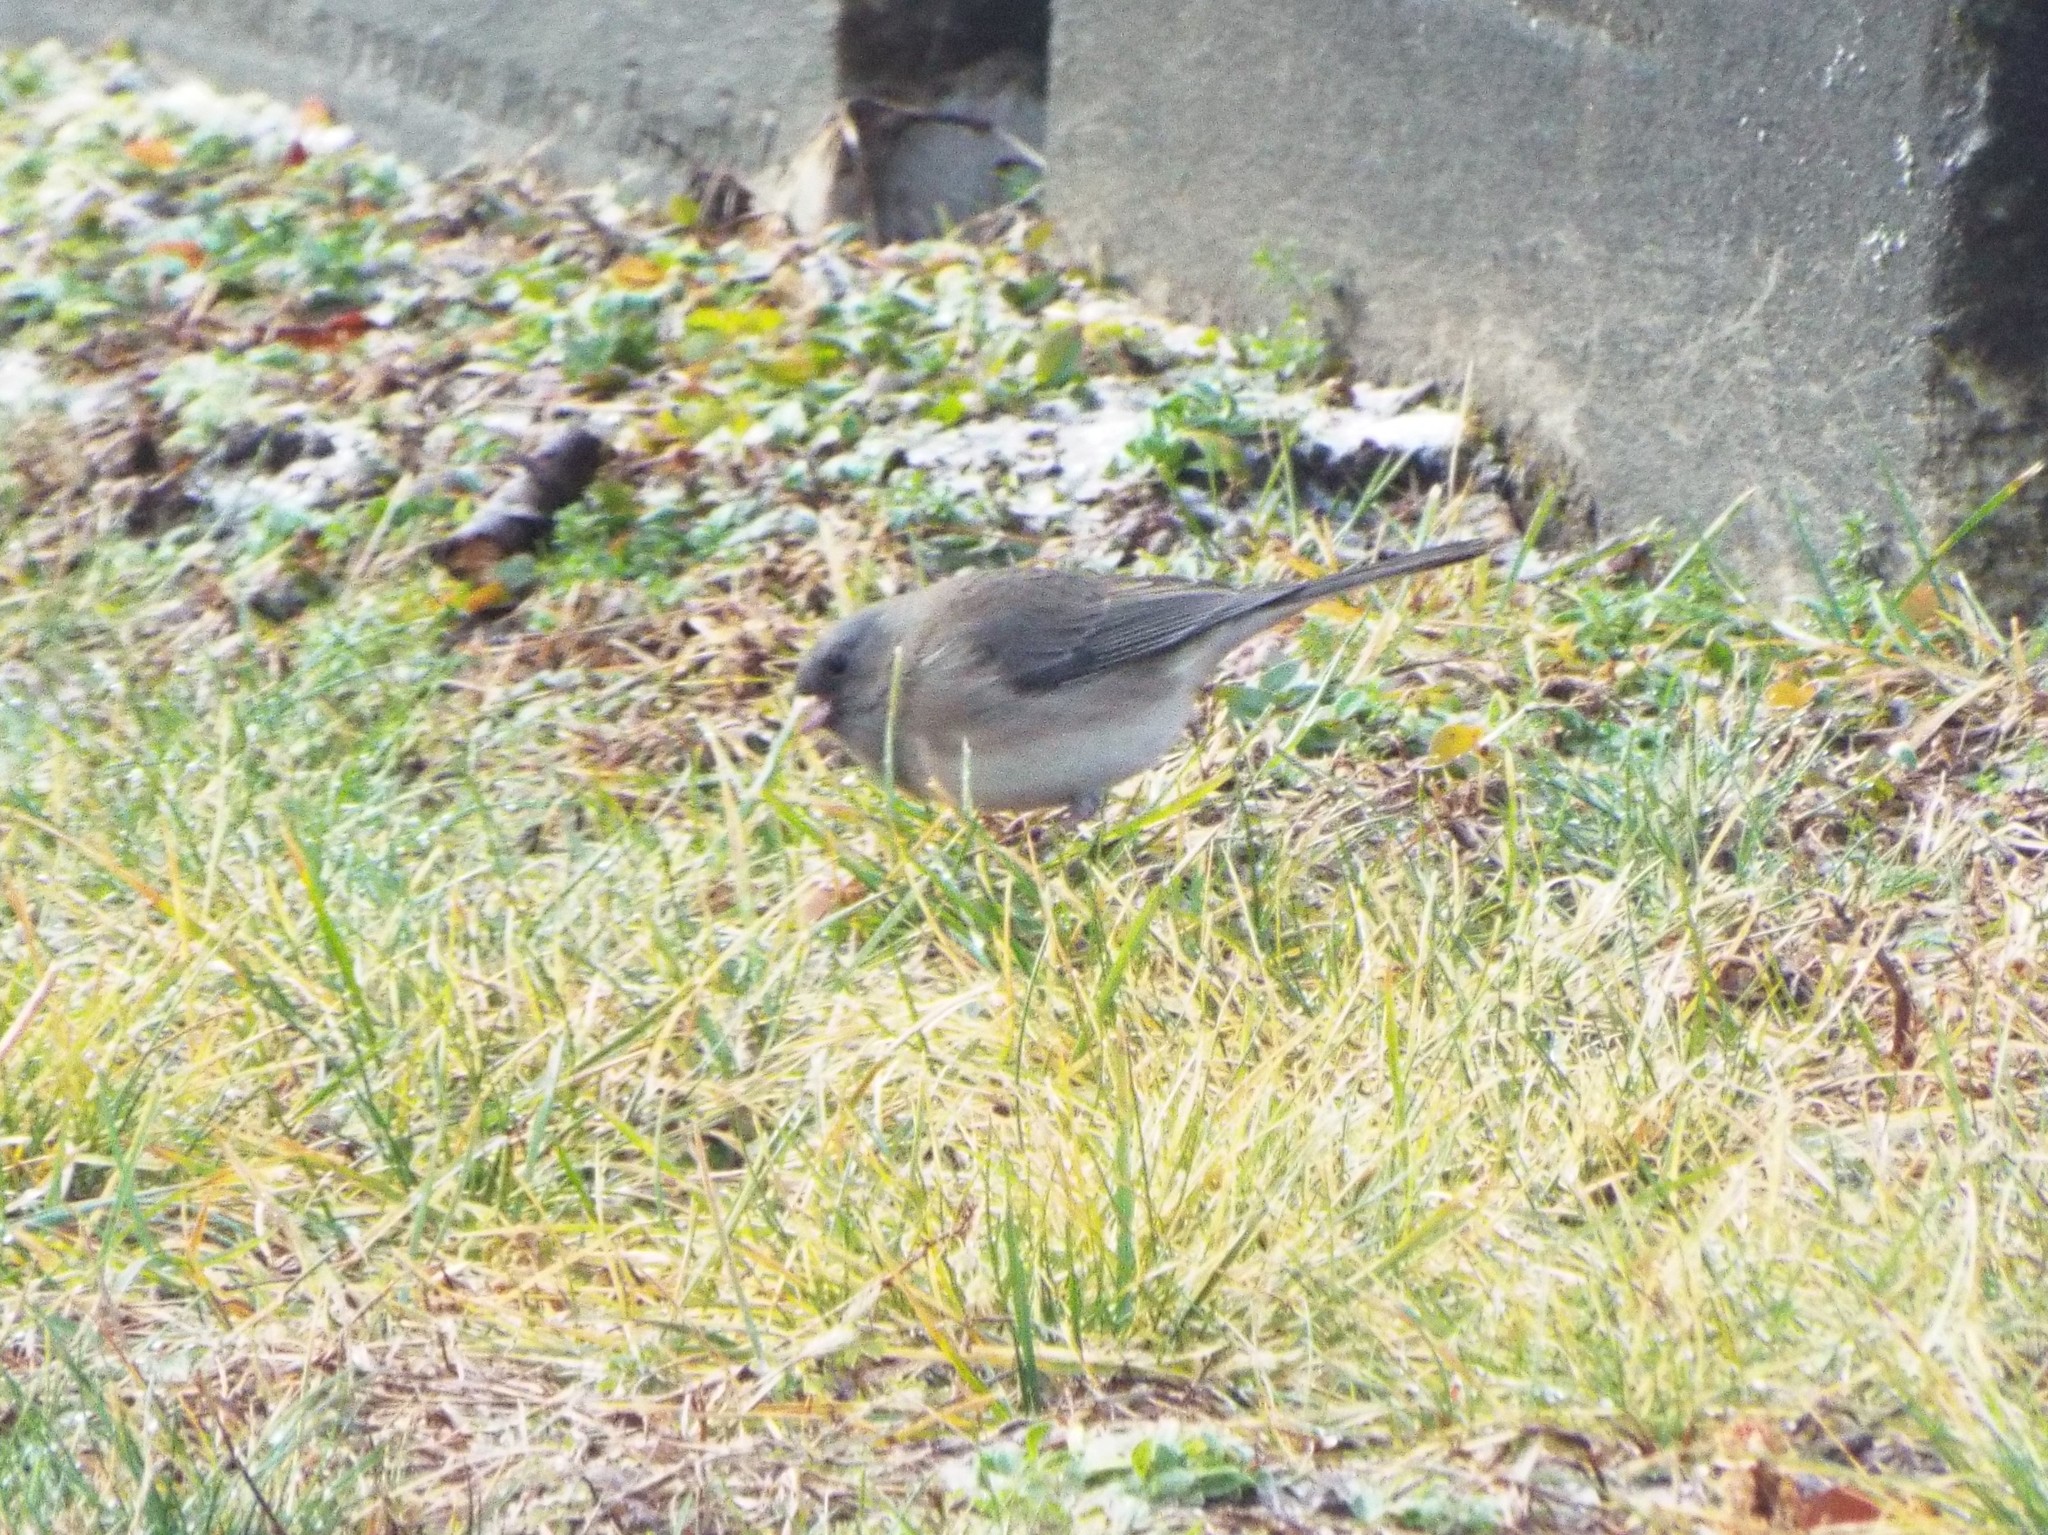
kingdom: Animalia
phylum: Chordata
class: Aves
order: Passeriformes
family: Passerellidae
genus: Junco
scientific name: Junco hyemalis
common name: Dark-eyed junco
